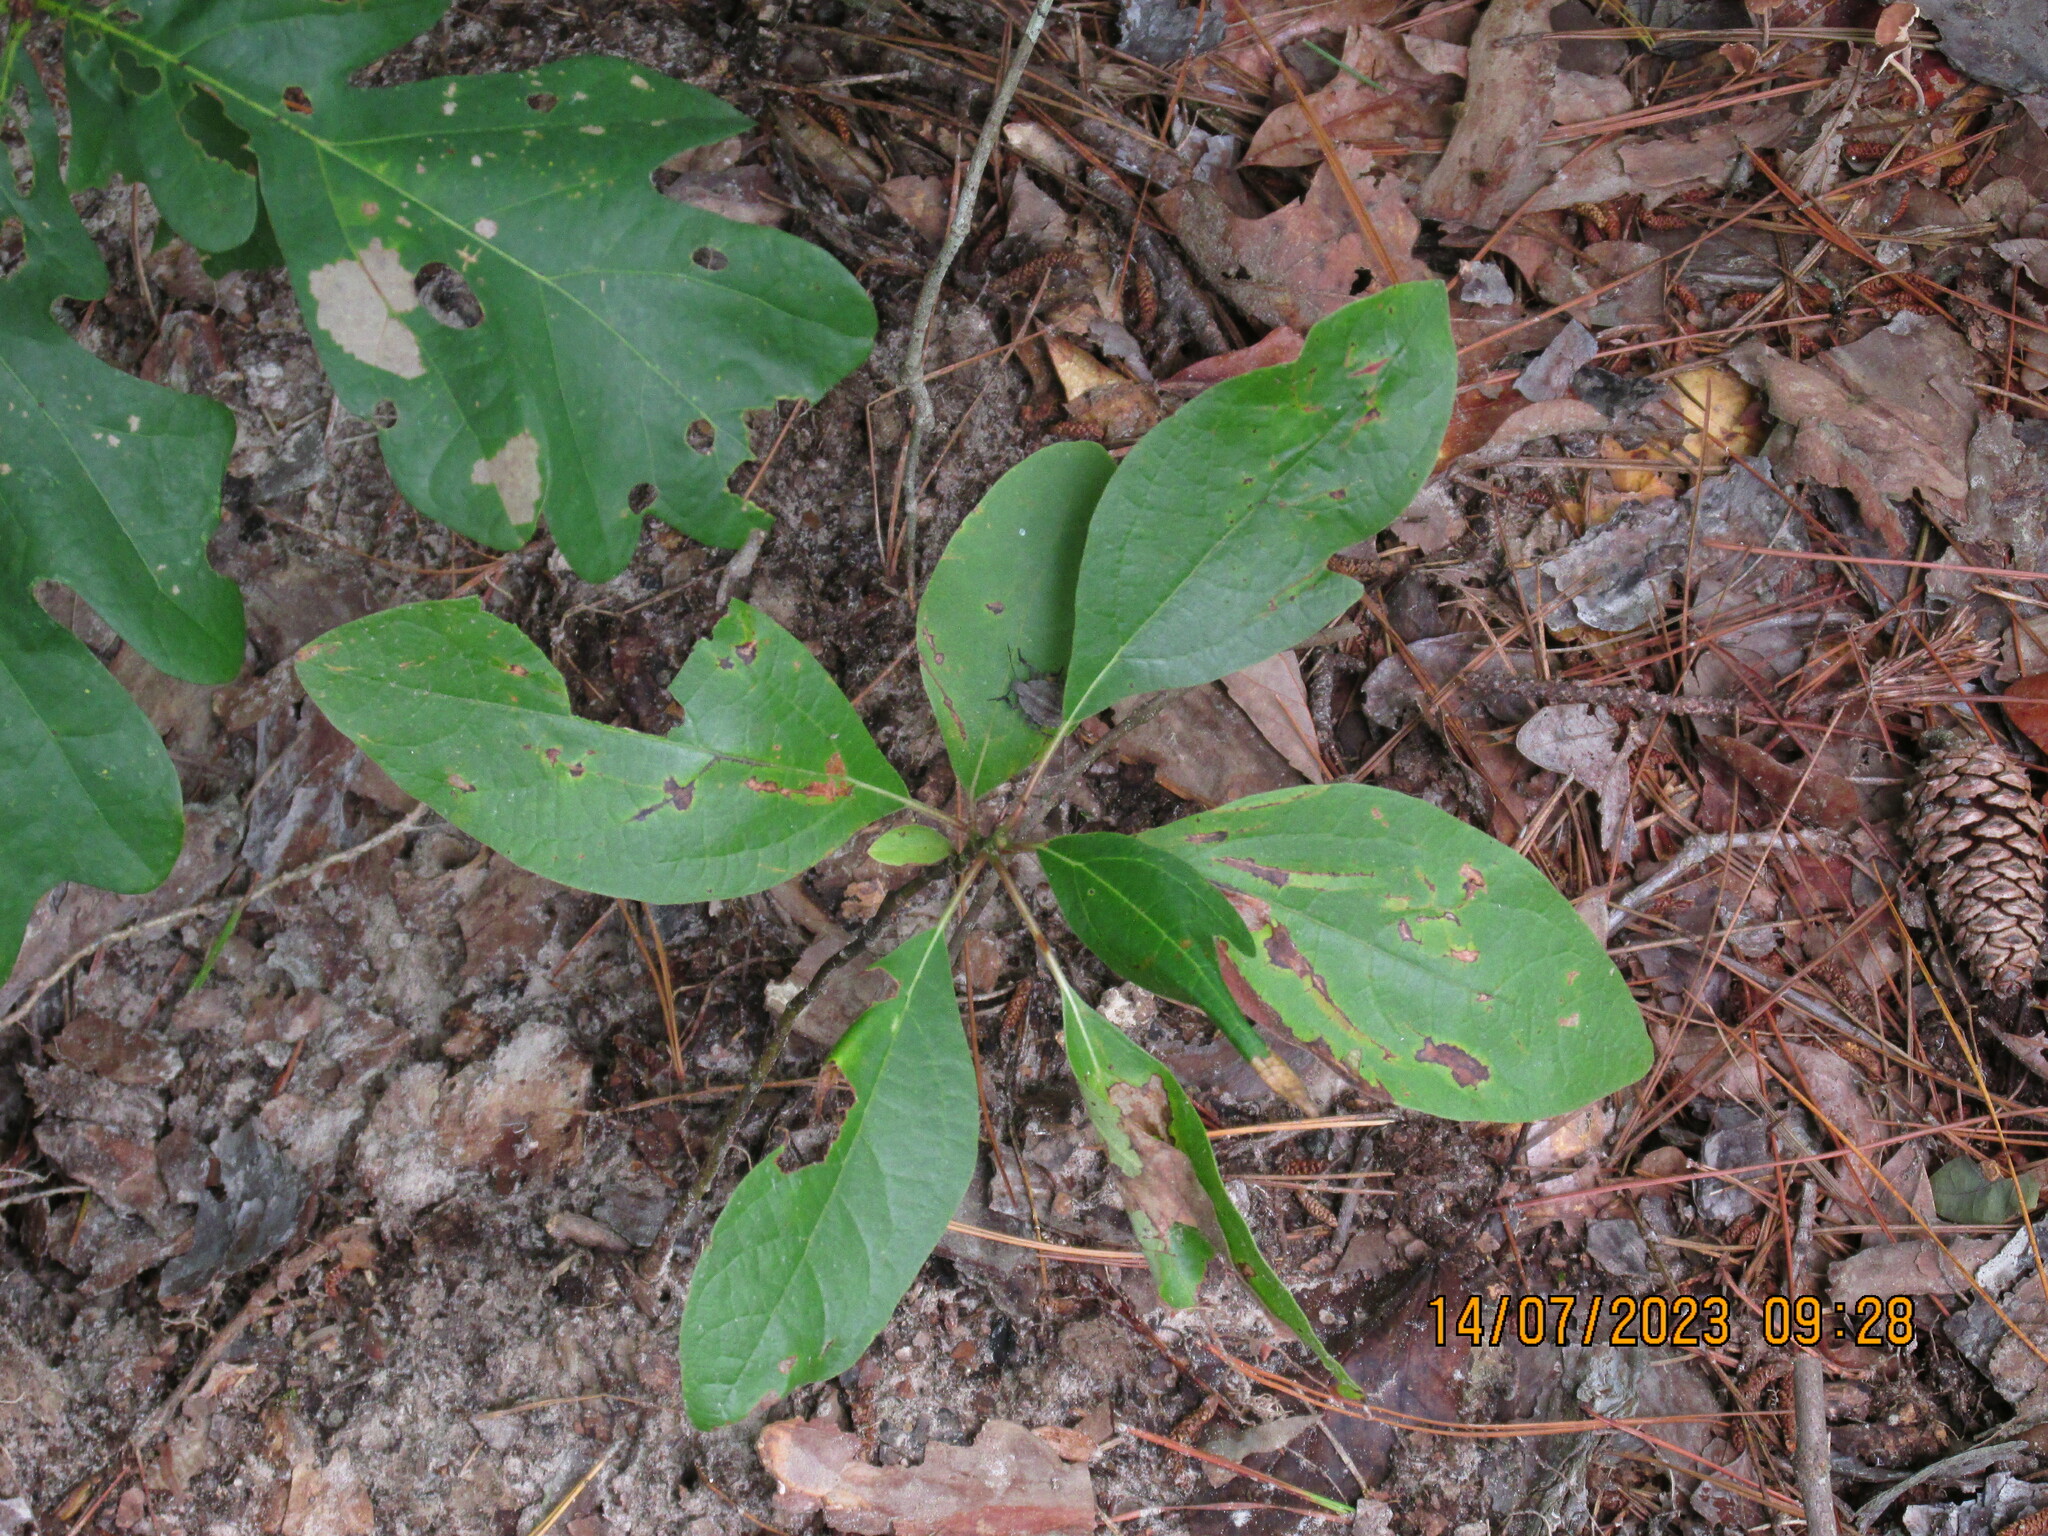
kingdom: Plantae
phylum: Tracheophyta
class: Magnoliopsida
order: Laurales
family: Lauraceae
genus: Sassafras
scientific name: Sassafras albidum
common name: Sassafras
